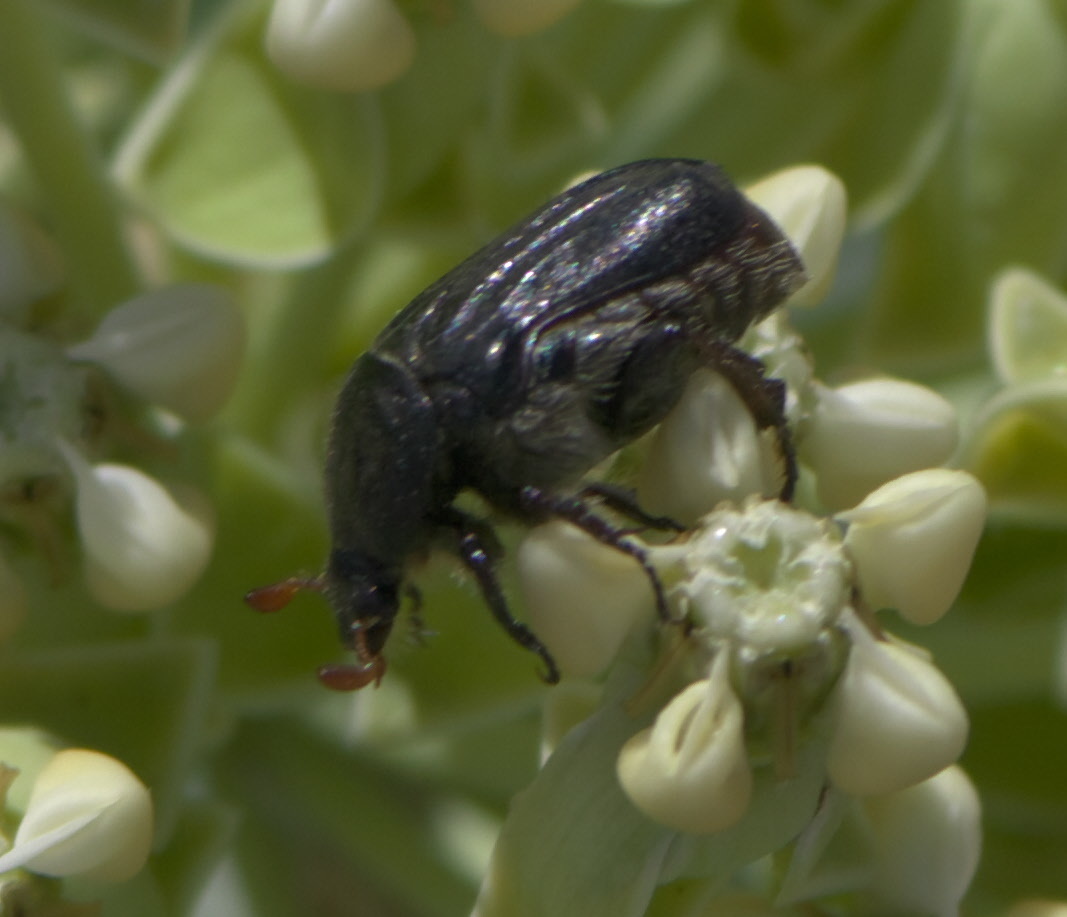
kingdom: Animalia
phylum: Arthropoda
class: Insecta
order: Coleoptera
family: Scarabaeidae
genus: Euphoria
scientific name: Euphoria kernii
